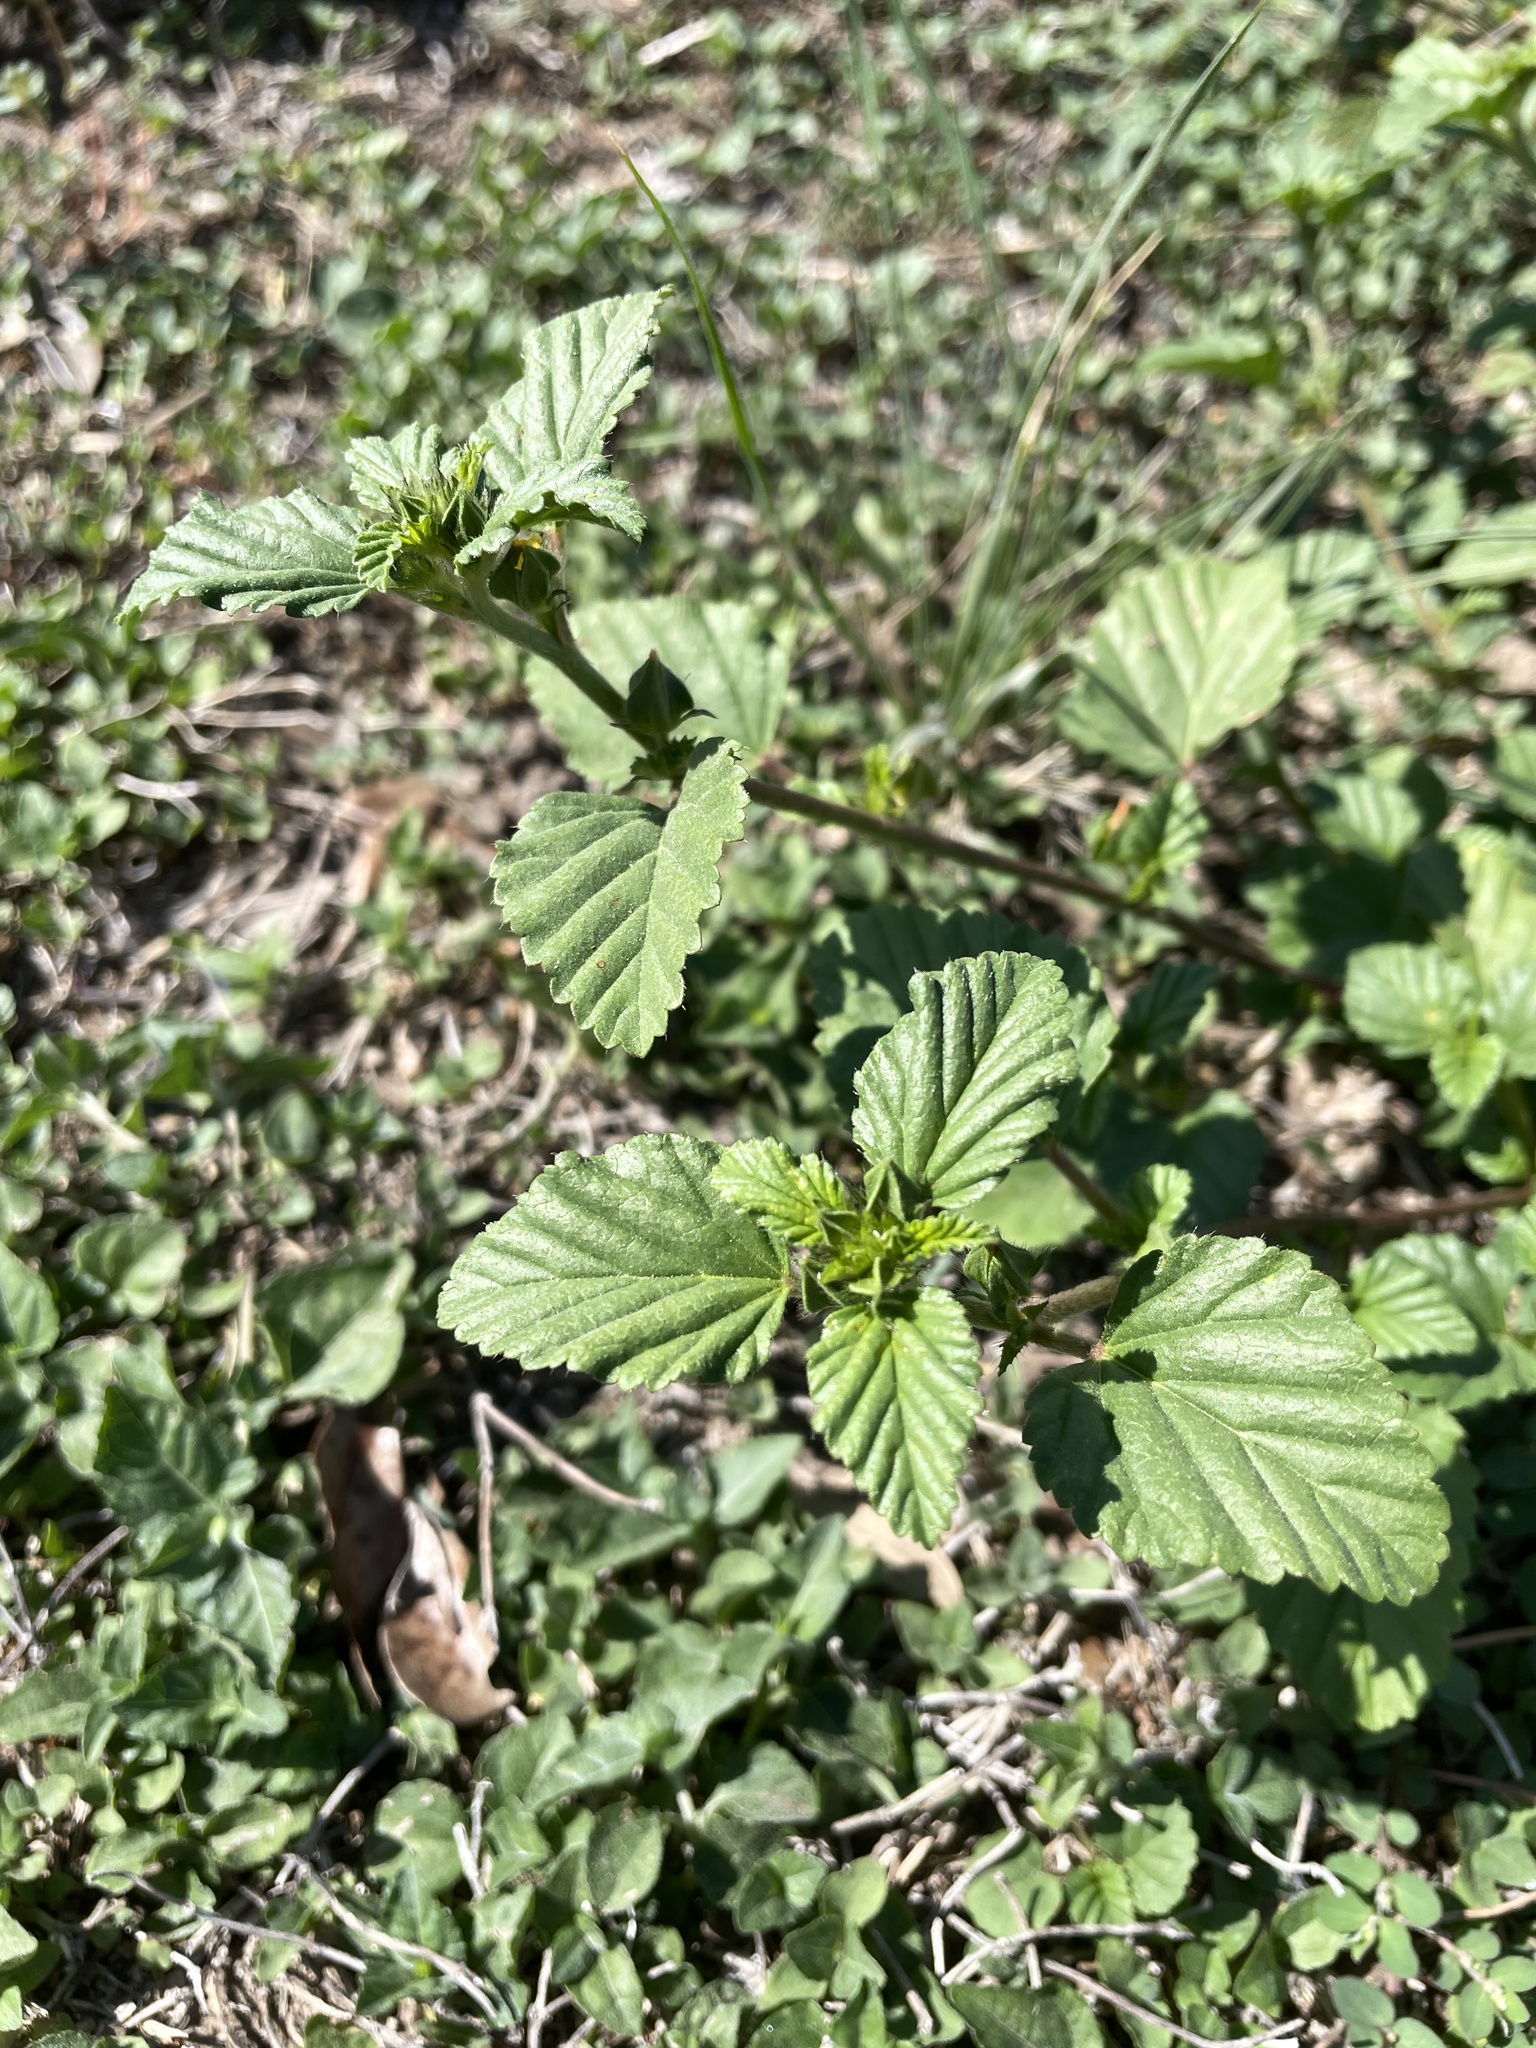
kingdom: Plantae
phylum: Tracheophyta
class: Magnoliopsida
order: Malvales
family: Malvaceae
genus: Malvastrum
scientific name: Malvastrum coromandelianum
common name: Threelobe false mallow
